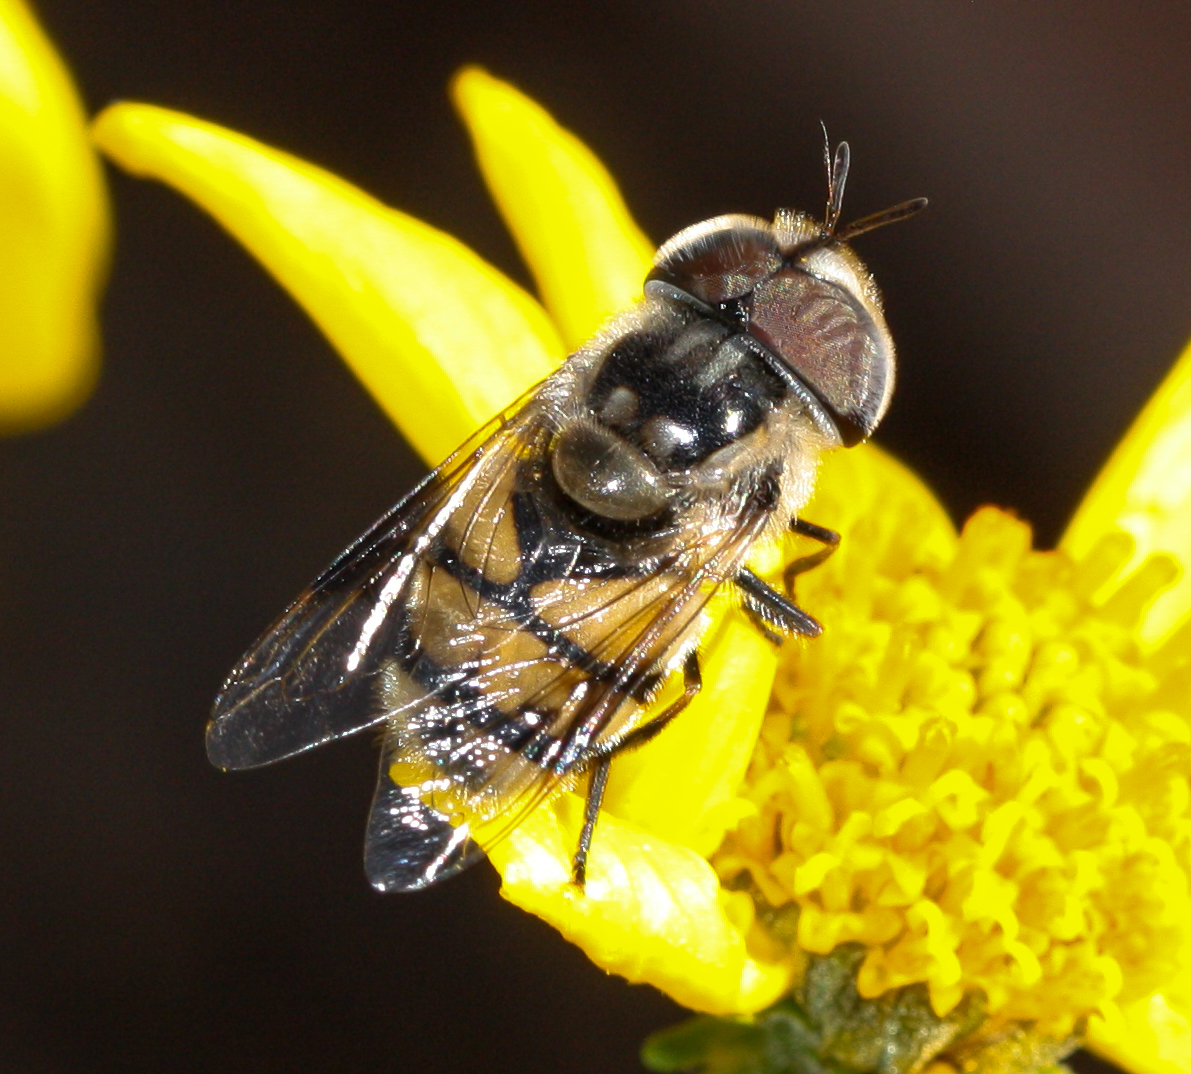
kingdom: Animalia
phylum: Arthropoda
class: Insecta
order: Diptera
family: Syrphidae
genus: Copestylum
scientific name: Copestylum fornax
